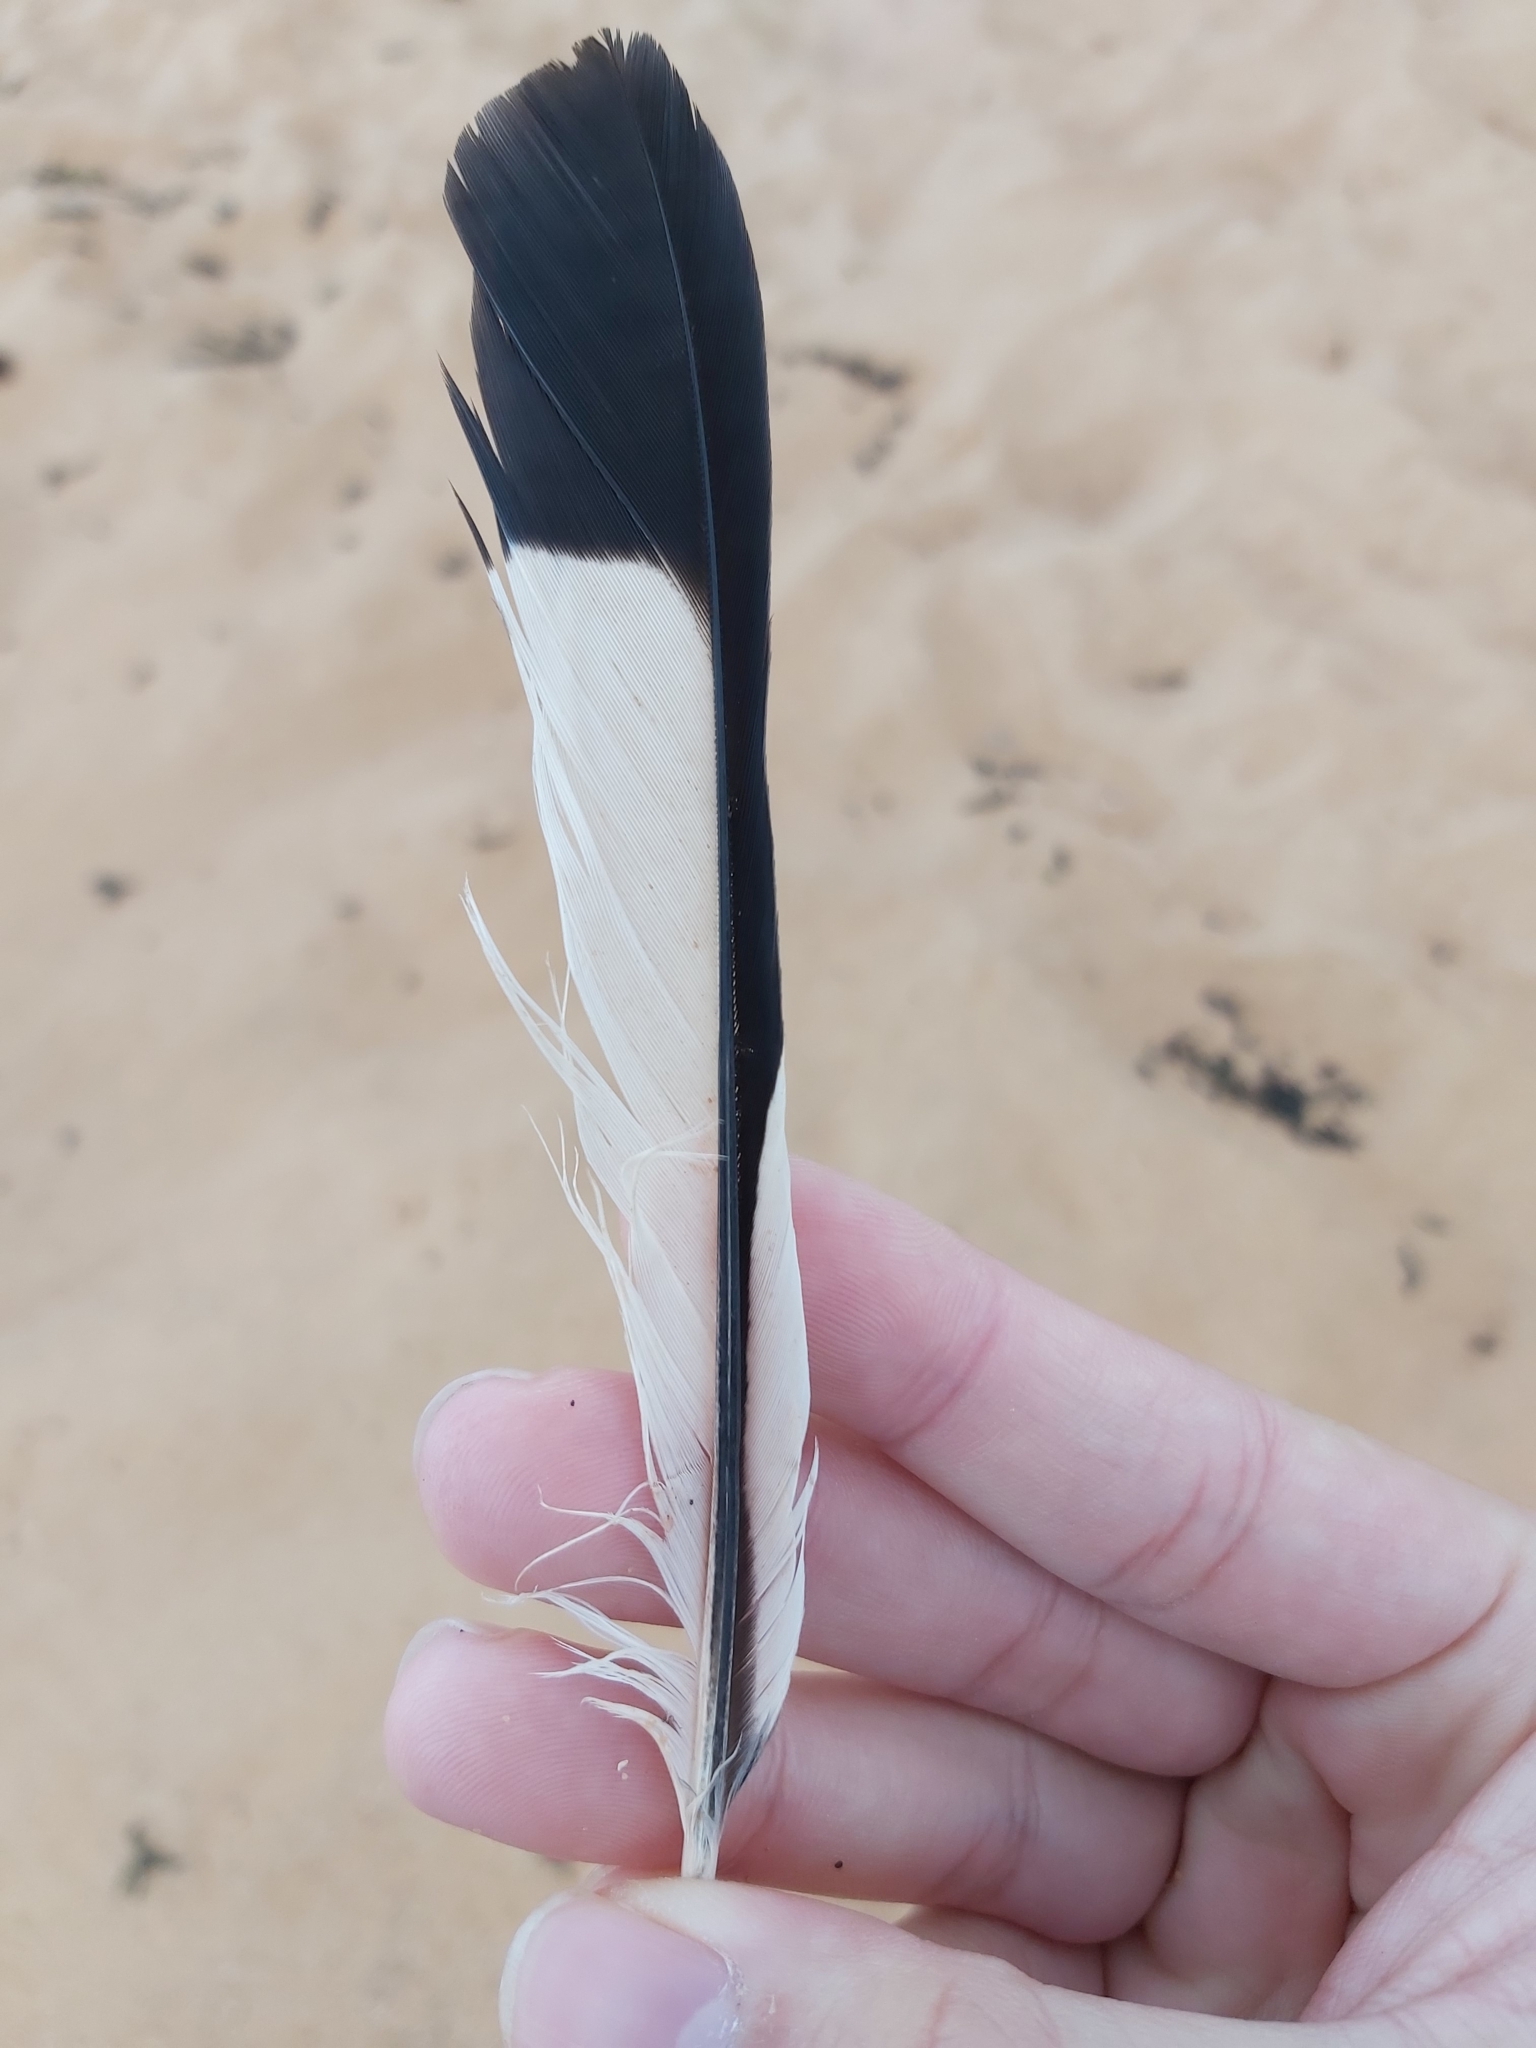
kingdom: Animalia
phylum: Chordata
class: Aves
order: Passeriformes
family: Cracticidae
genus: Gymnorhina
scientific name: Gymnorhina tibicen
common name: Australian magpie
